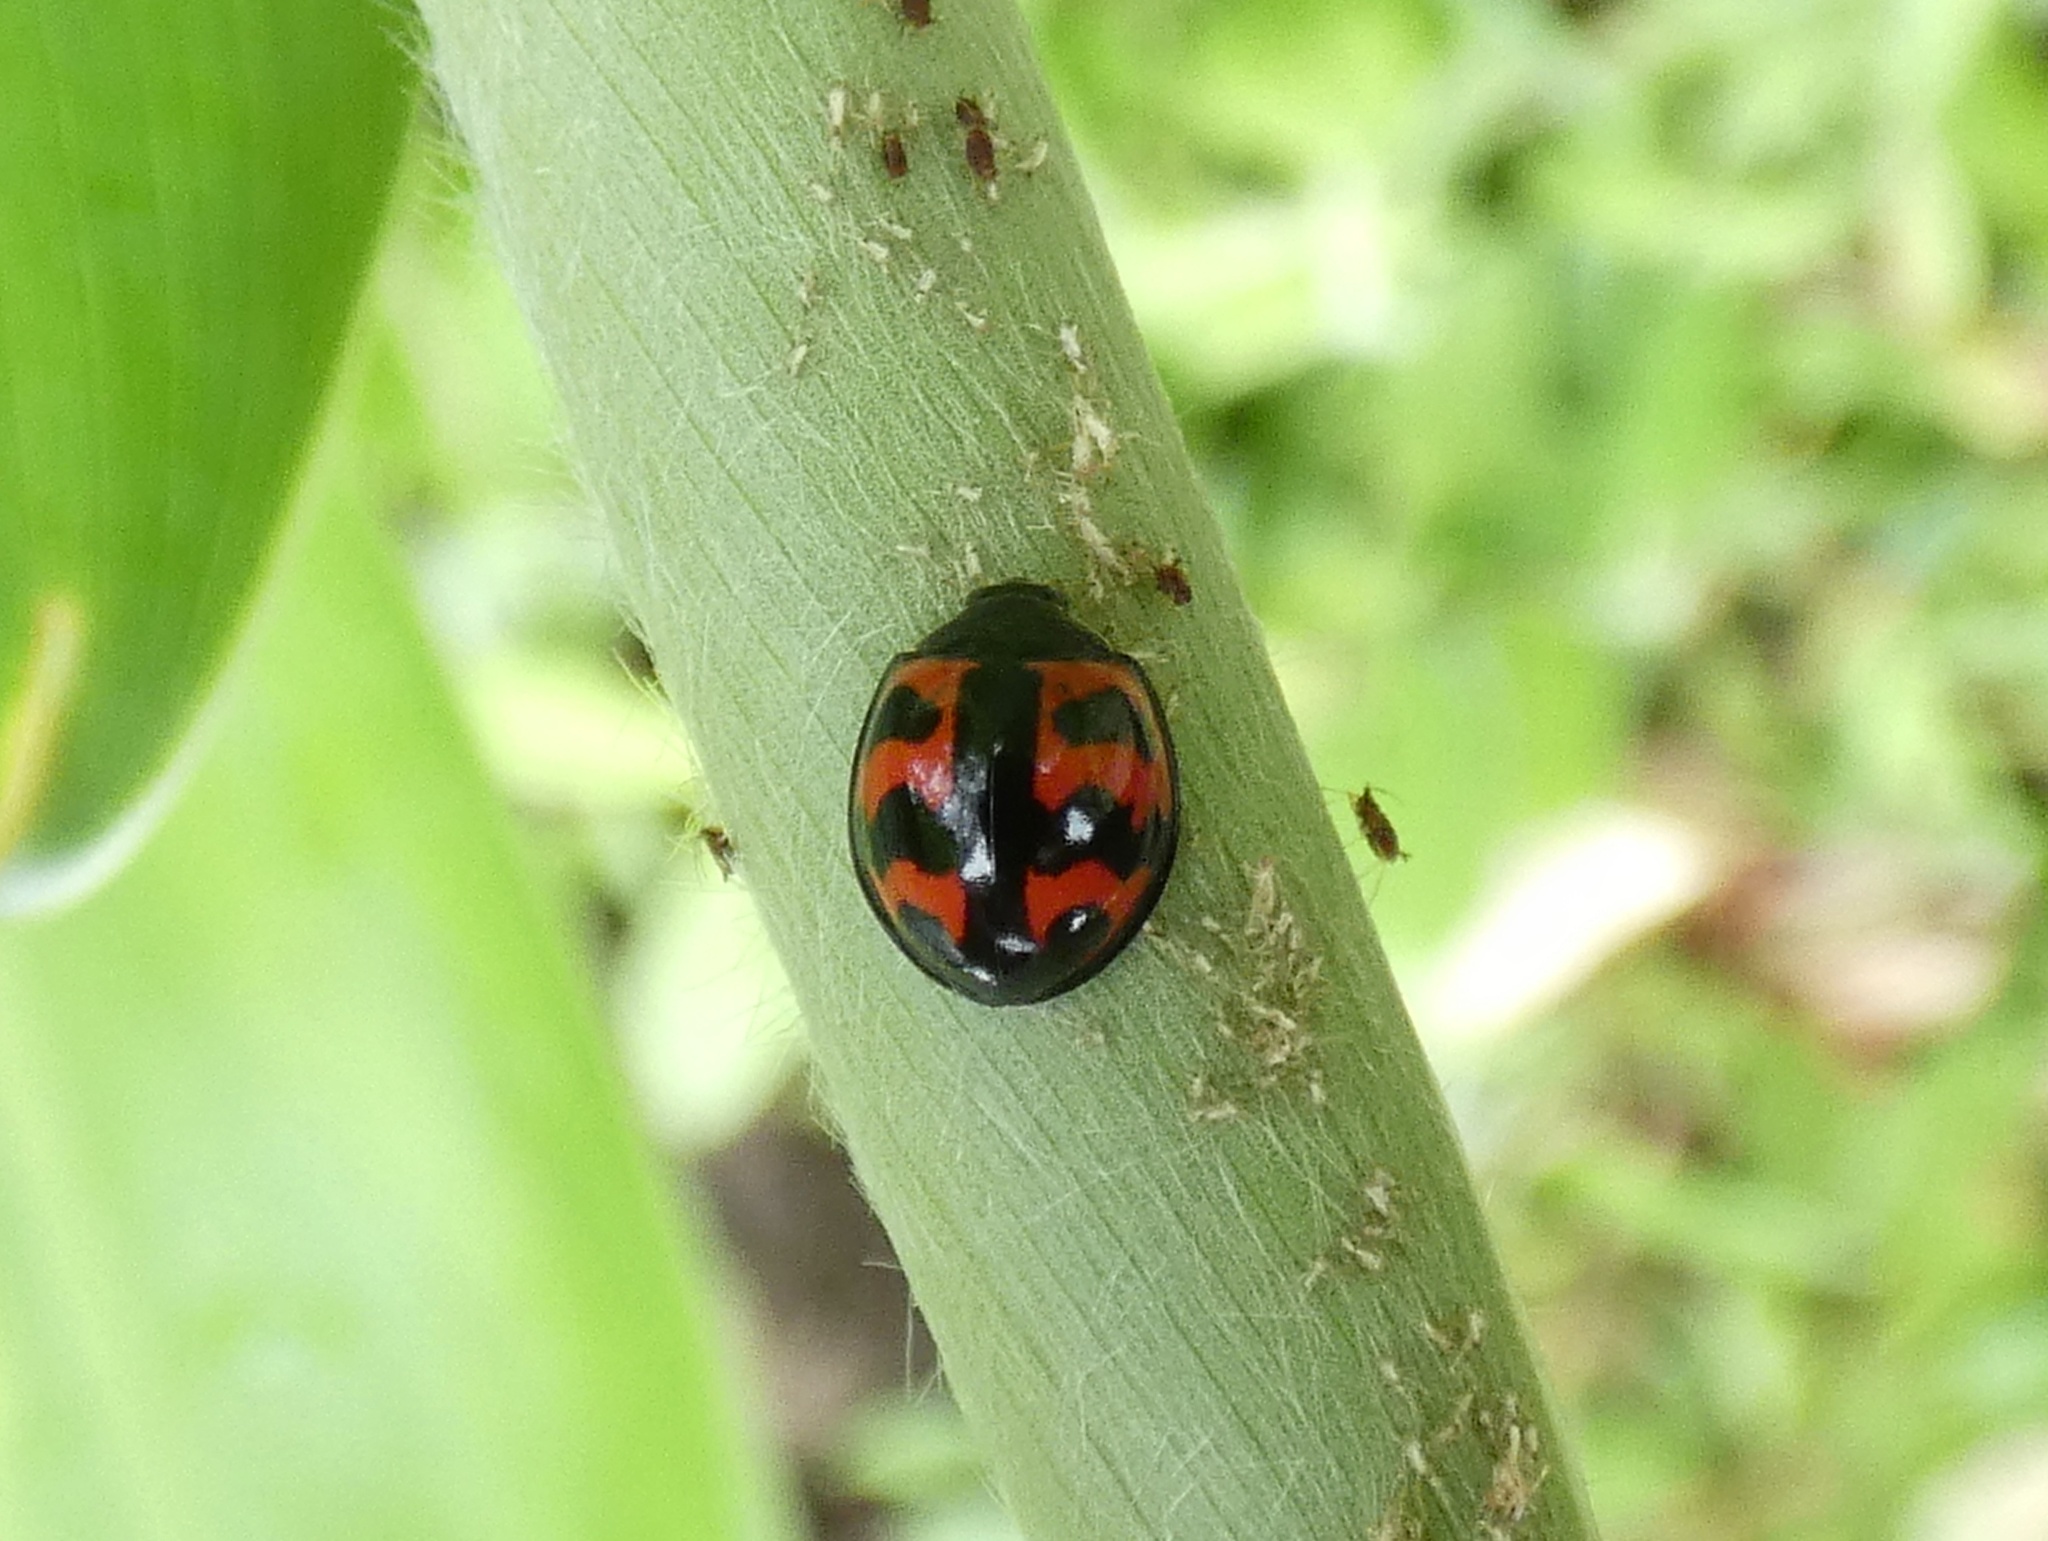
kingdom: Animalia
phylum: Arthropoda
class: Insecta
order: Coleoptera
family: Coccinellidae
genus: Cheilomenes
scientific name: Cheilomenes sexmaculata
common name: Ladybird beetle
